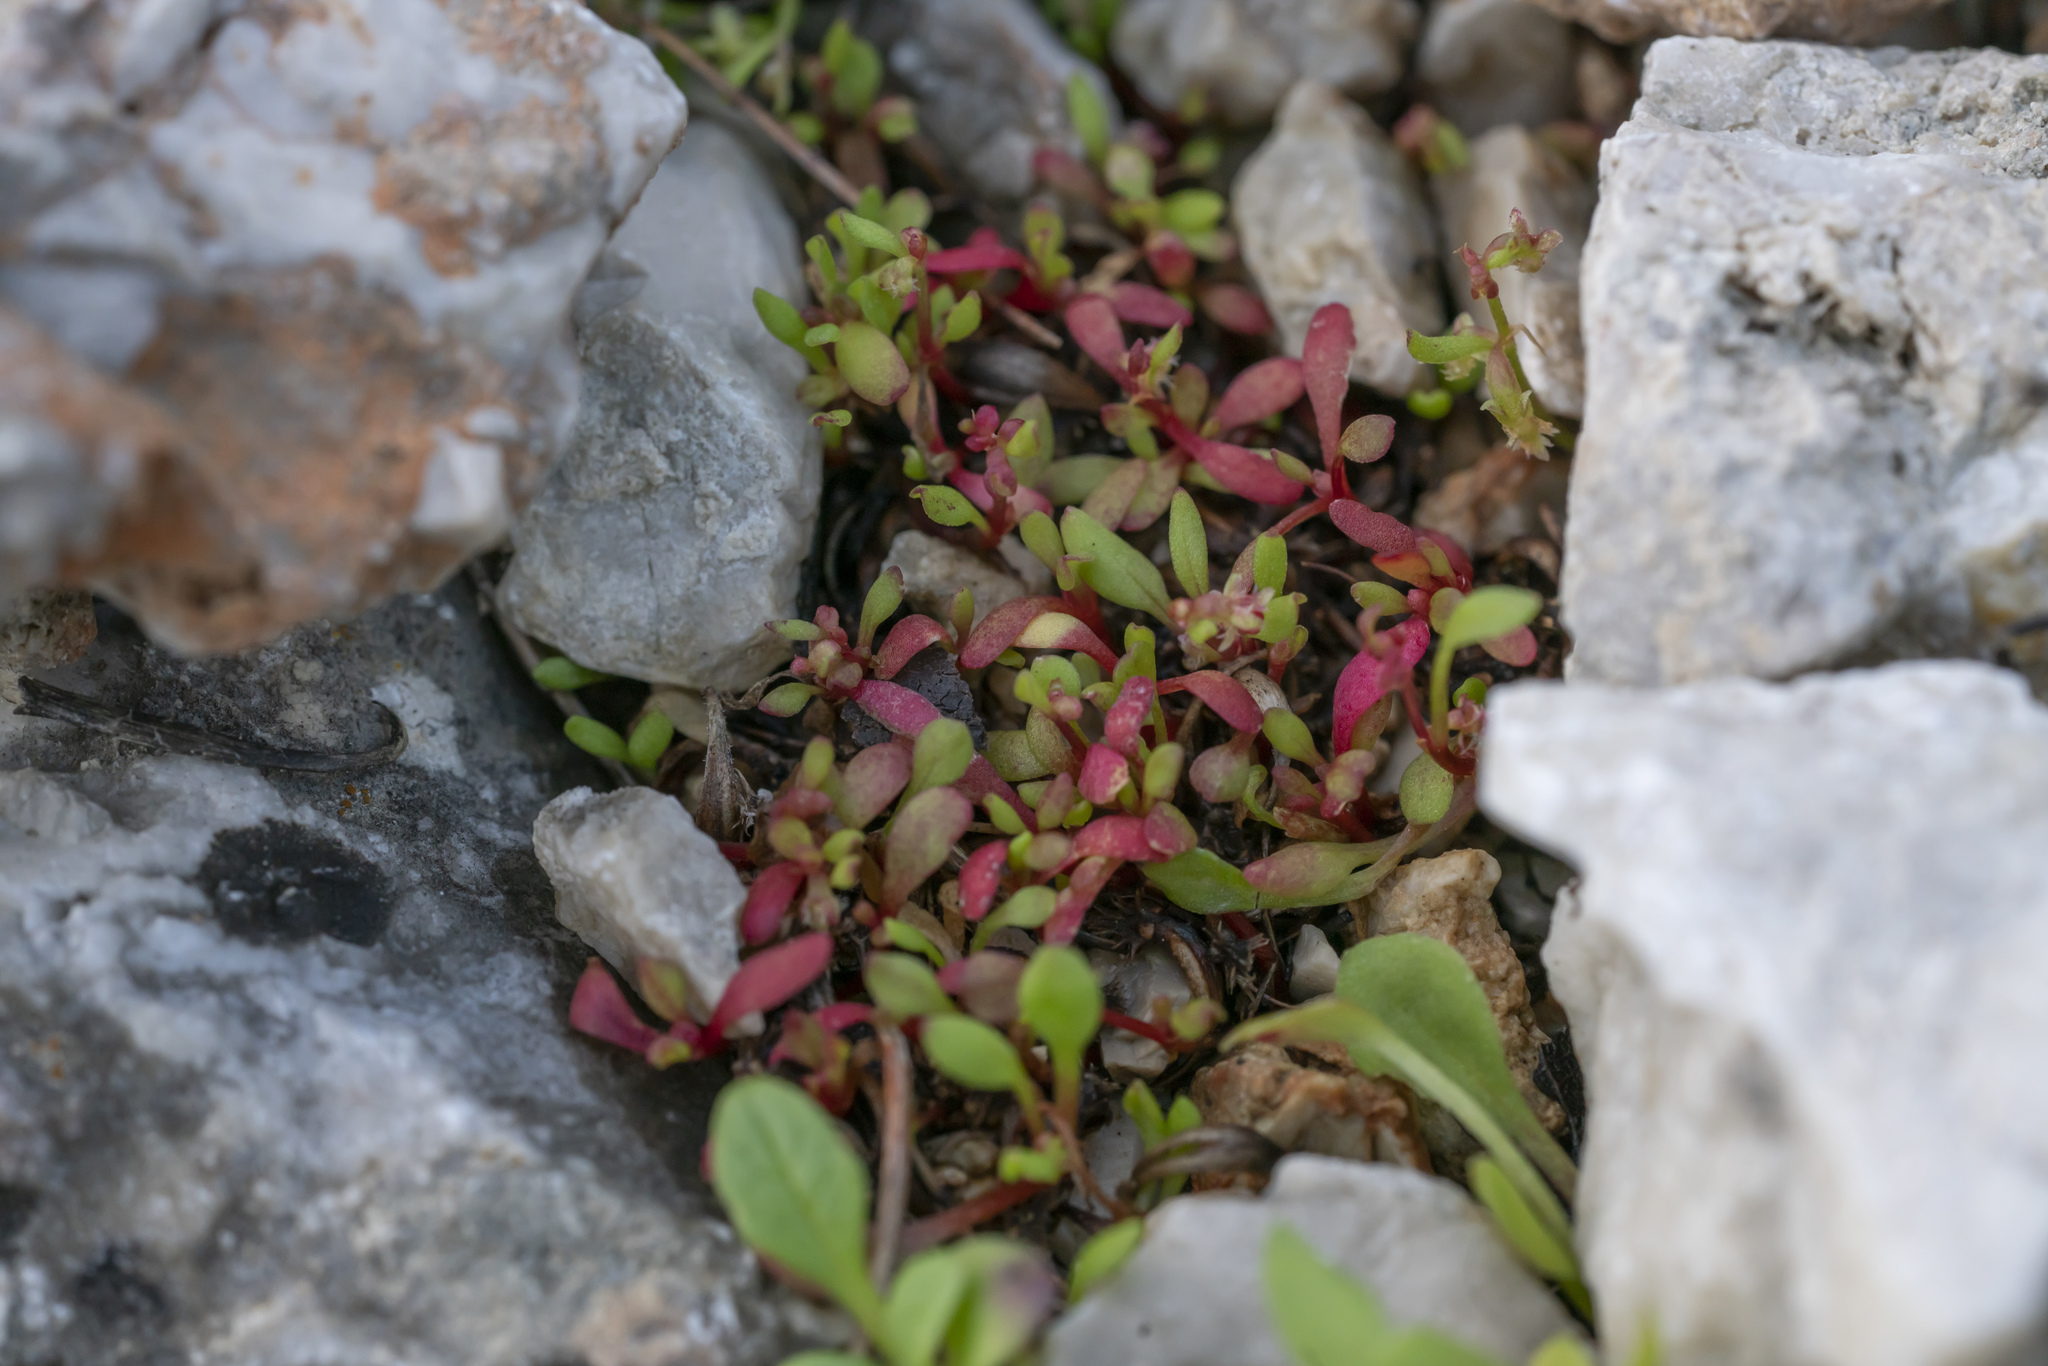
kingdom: Plantae
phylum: Tracheophyta
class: Magnoliopsida
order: Caryophyllales
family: Polygonaceae
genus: Rumex
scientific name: Rumex bucephalophorus
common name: Red dock
